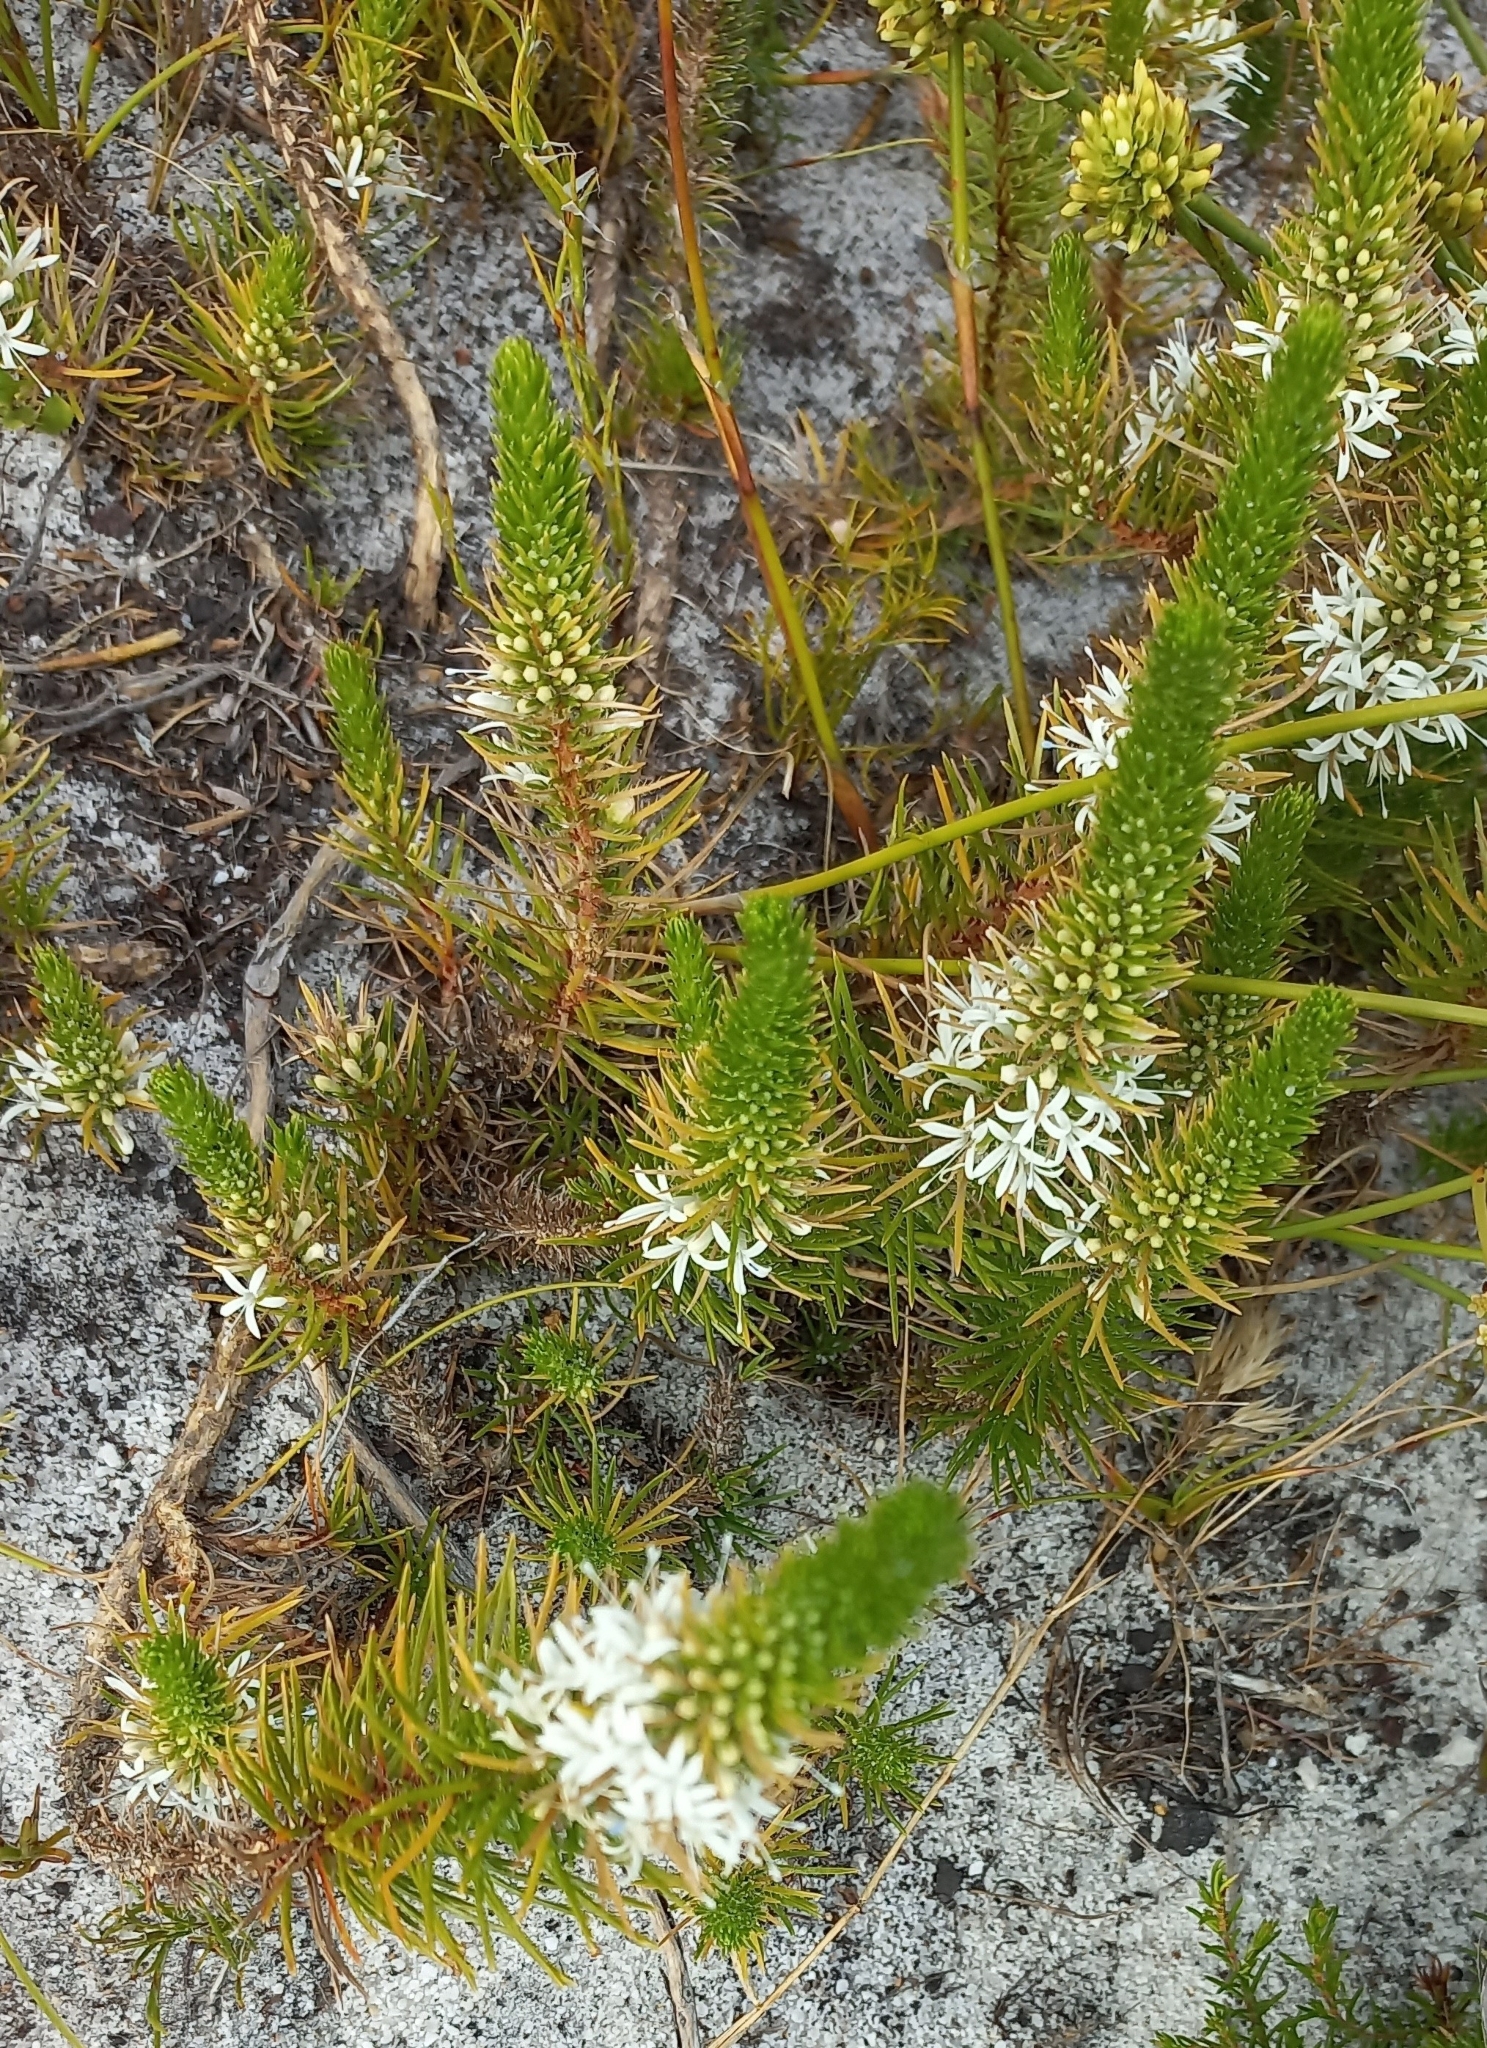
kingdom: Plantae
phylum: Tracheophyta
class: Magnoliopsida
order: Asterales
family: Campanulaceae
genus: Merciera
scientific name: Merciera leptoloba
